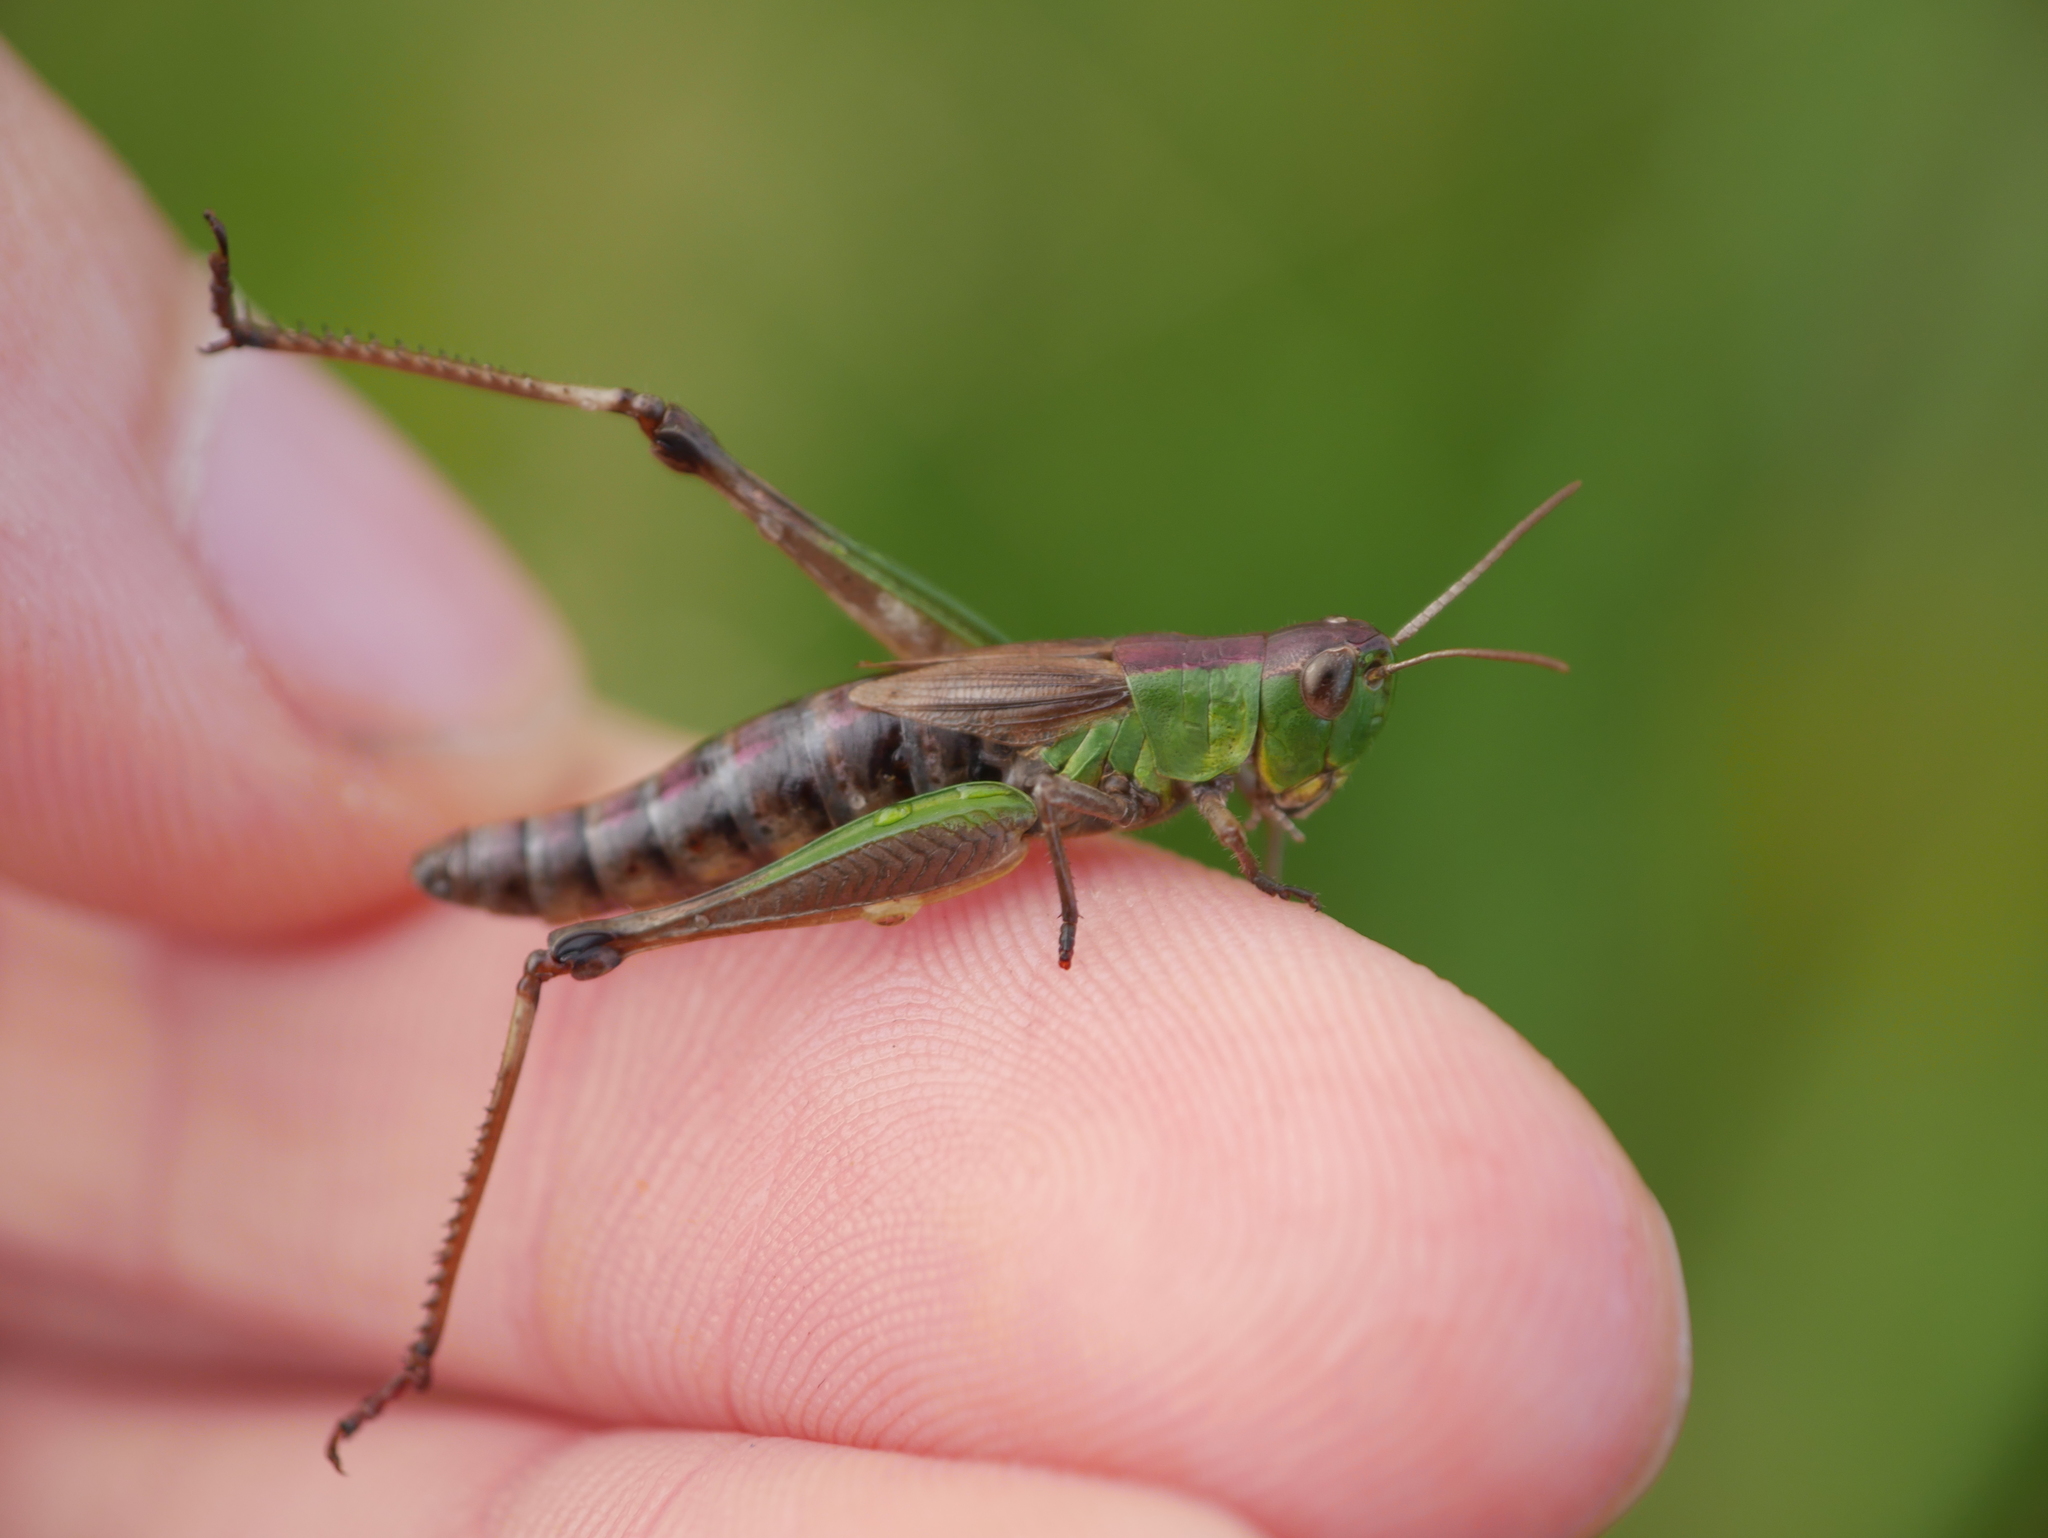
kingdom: Animalia
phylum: Arthropoda
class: Insecta
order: Orthoptera
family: Acrididae
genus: Pseudochorthippus
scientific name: Pseudochorthippus parallelus
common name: Meadow grasshopper
